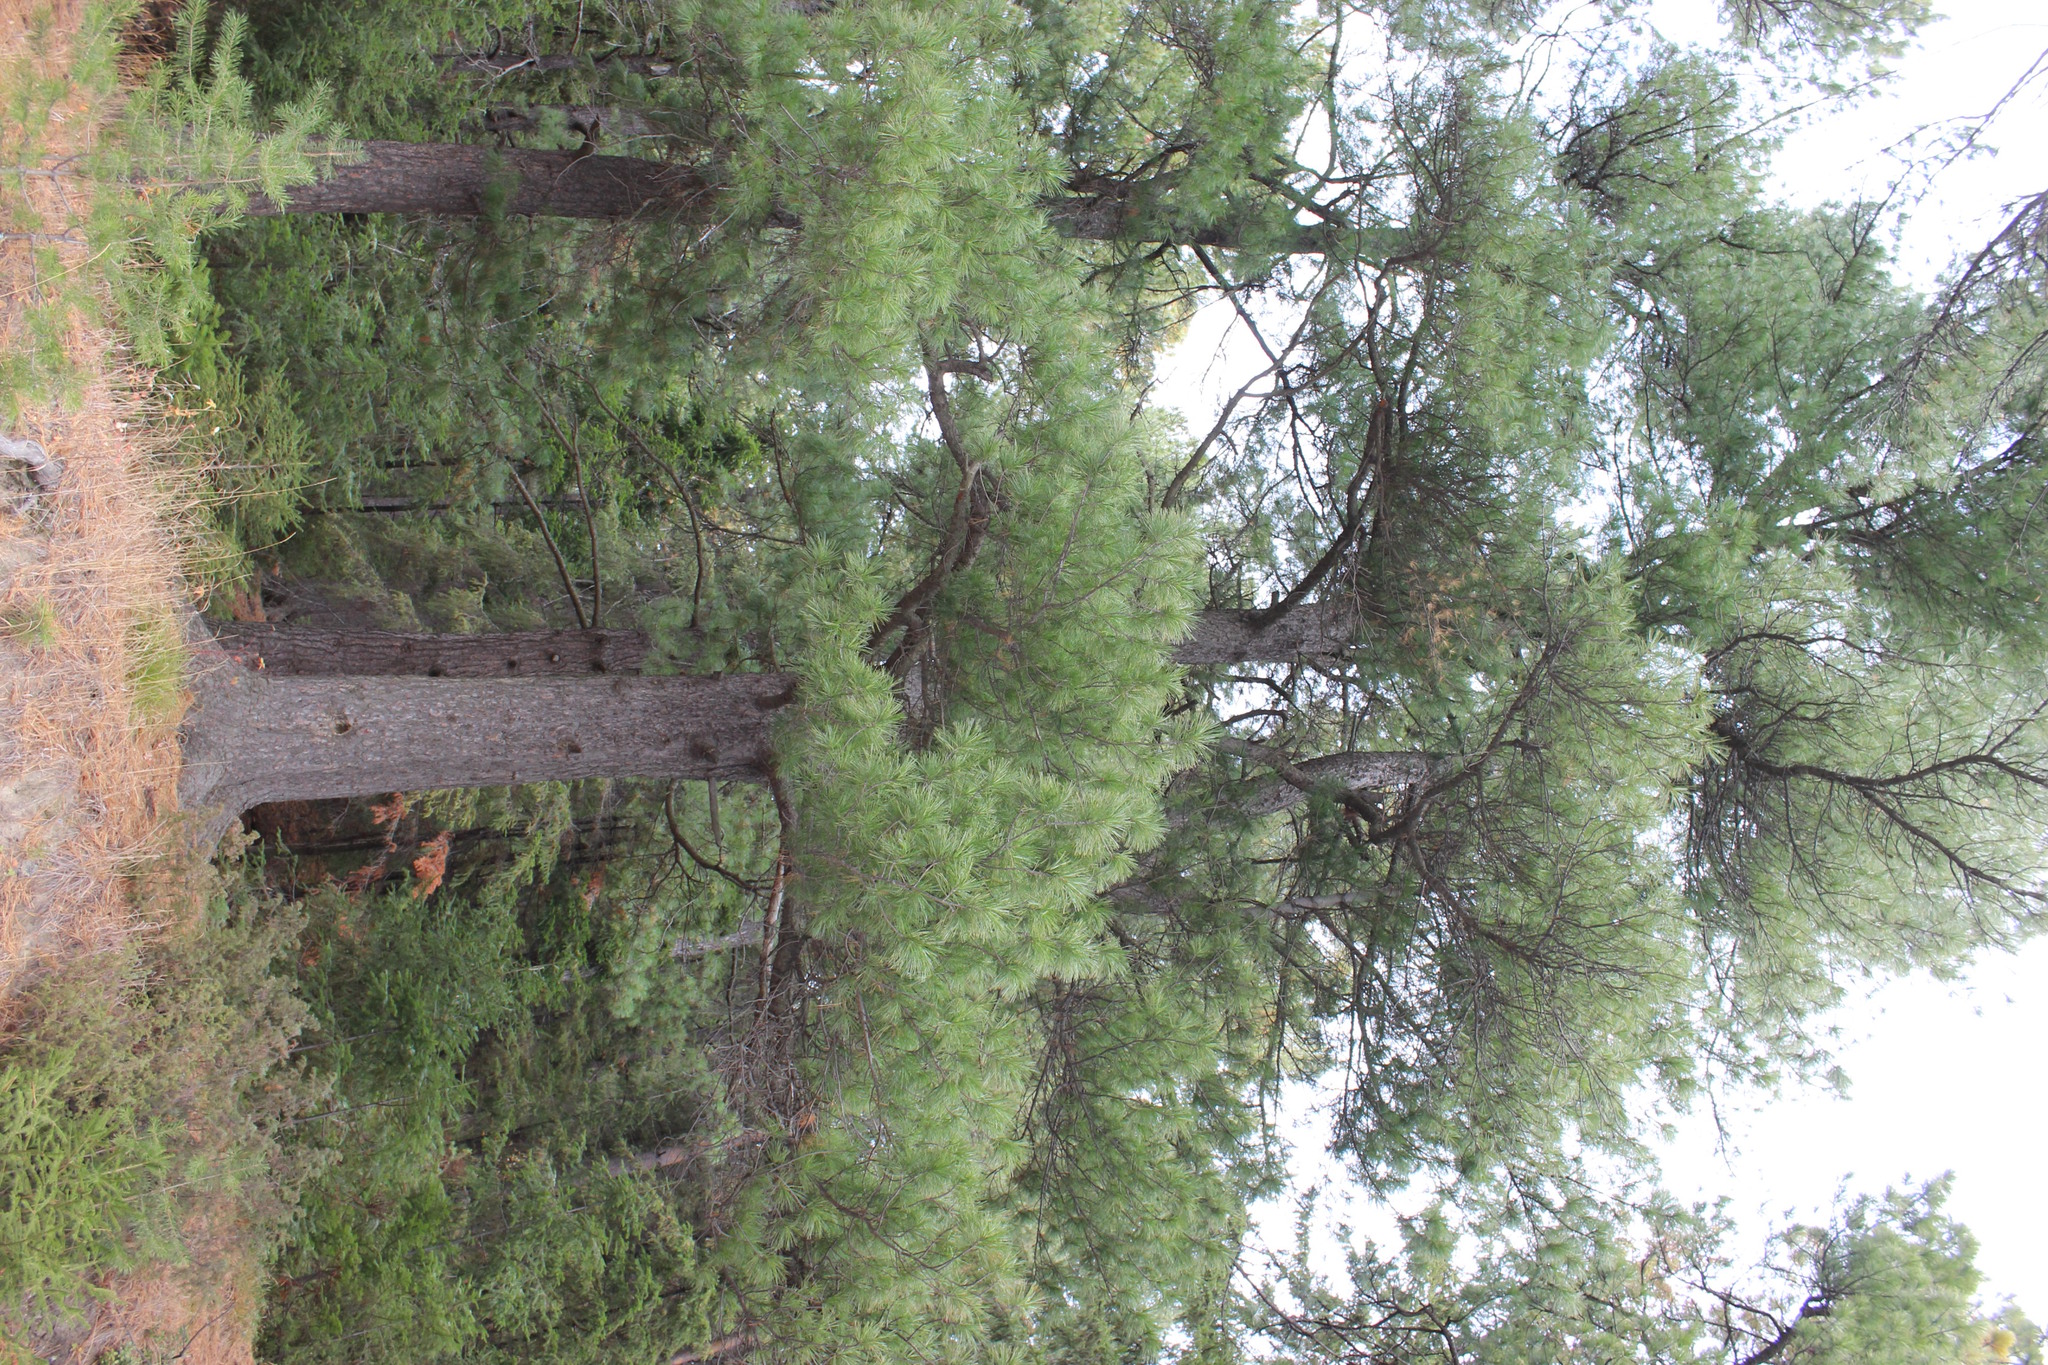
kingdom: Plantae
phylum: Tracheophyta
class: Pinopsida
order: Pinales
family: Pinaceae
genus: Pinus
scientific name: Pinus sibirica
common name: Siberian pine
